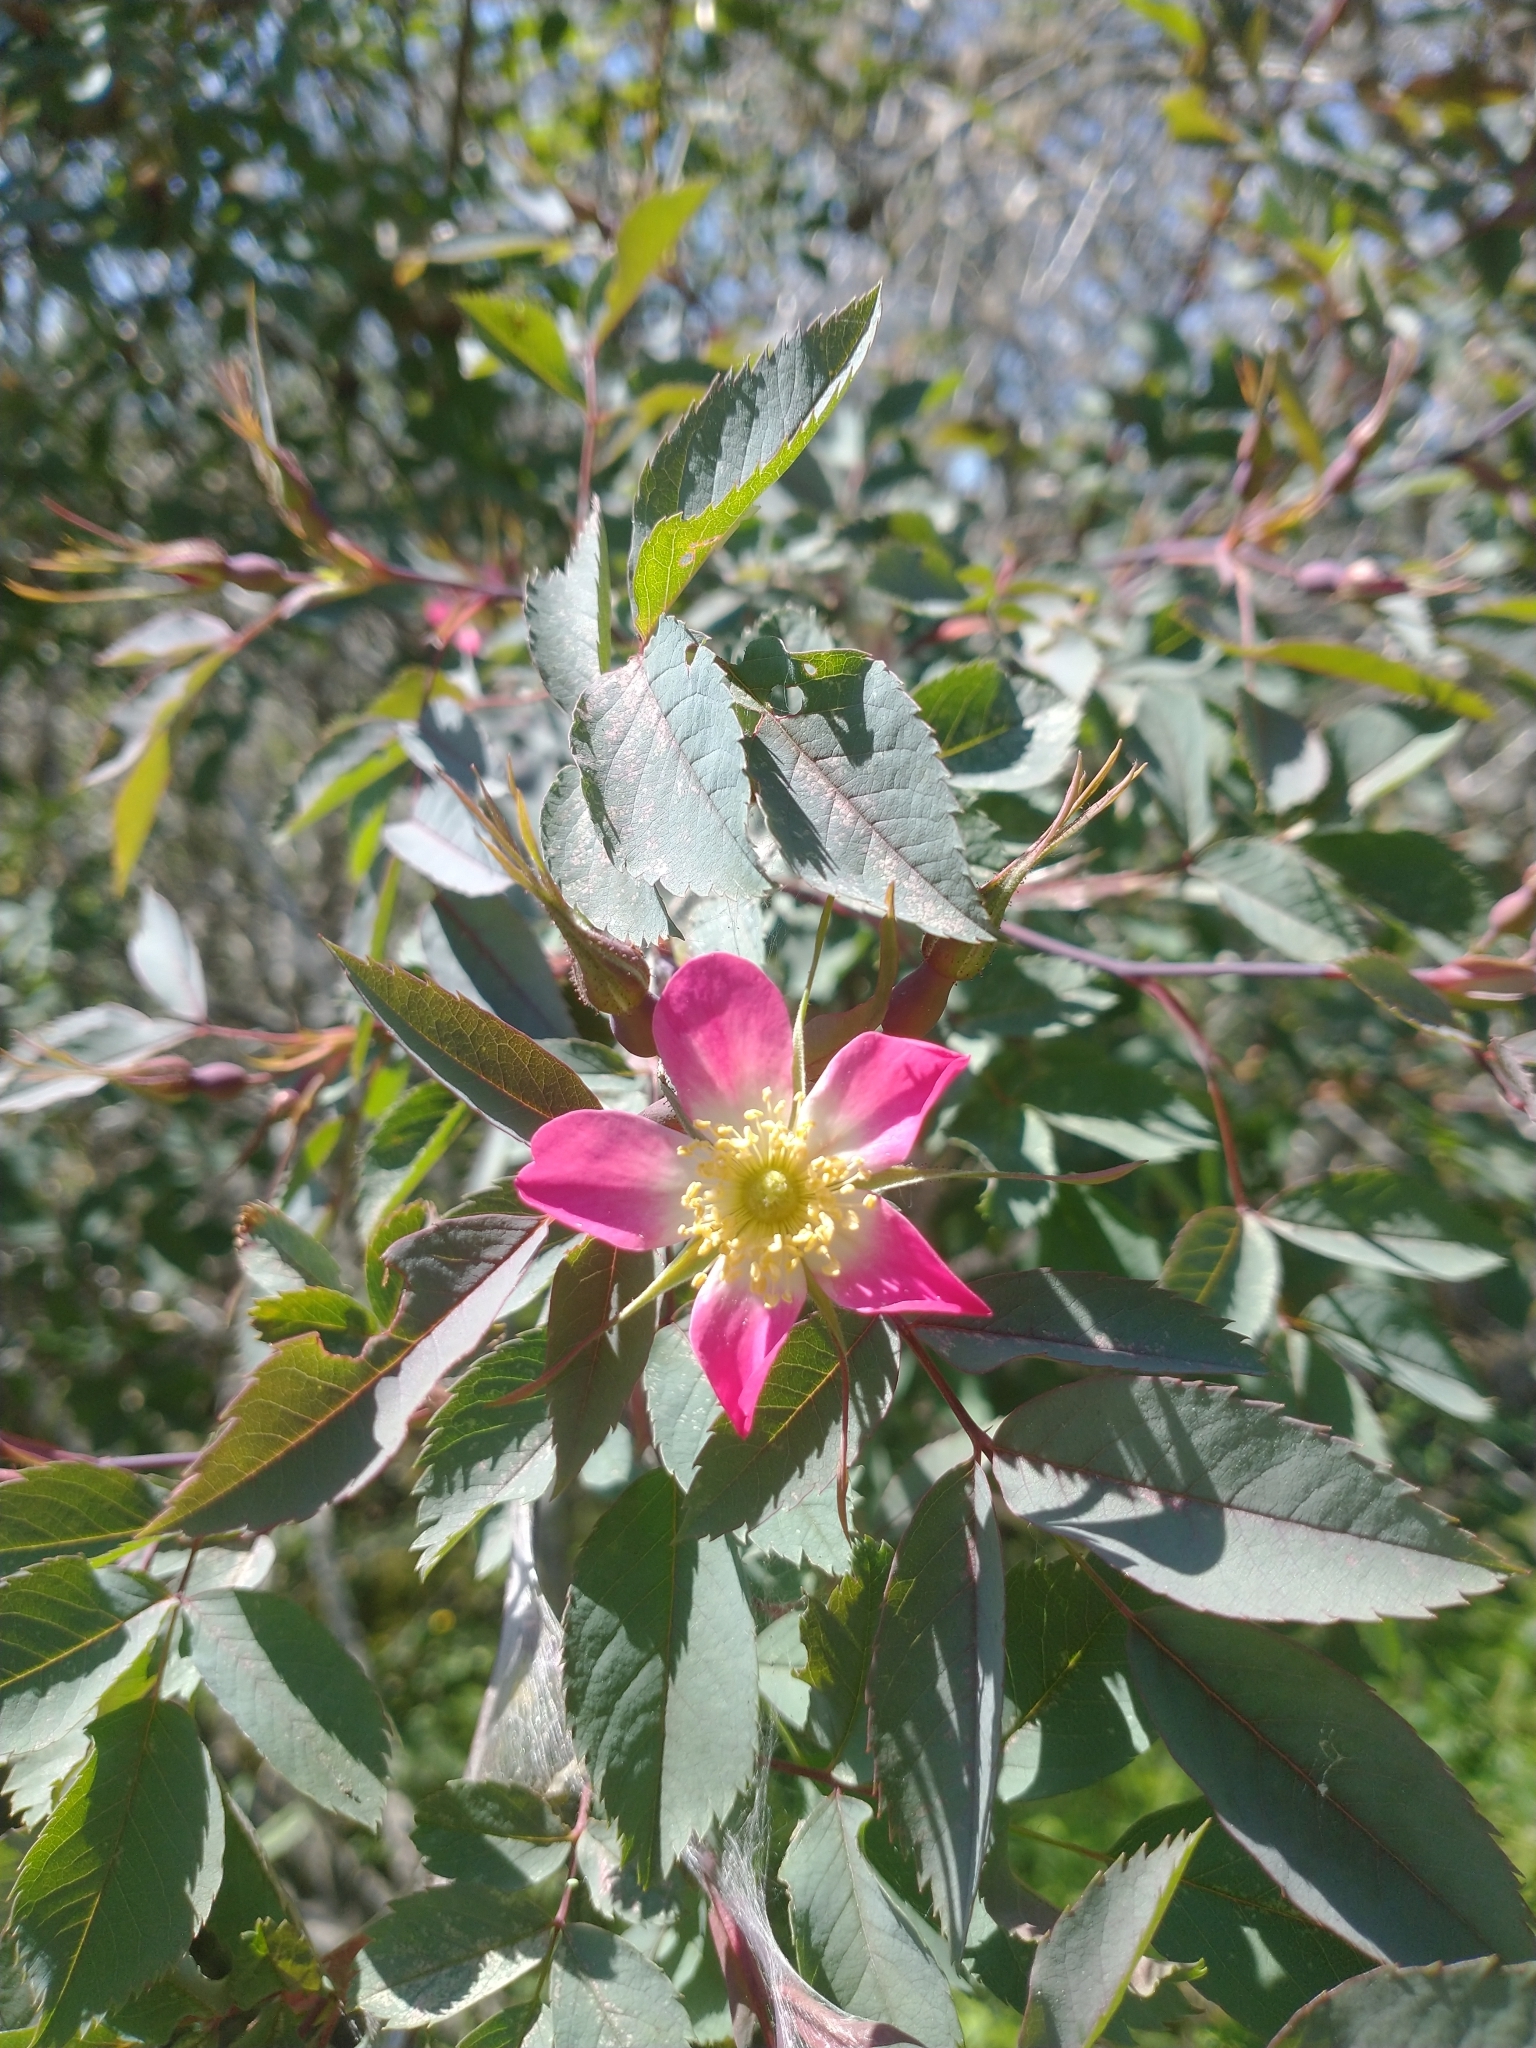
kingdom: Plantae
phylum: Tracheophyta
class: Magnoliopsida
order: Rosales
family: Rosaceae
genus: Rosa
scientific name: Rosa glauca
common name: Redleaf rose
